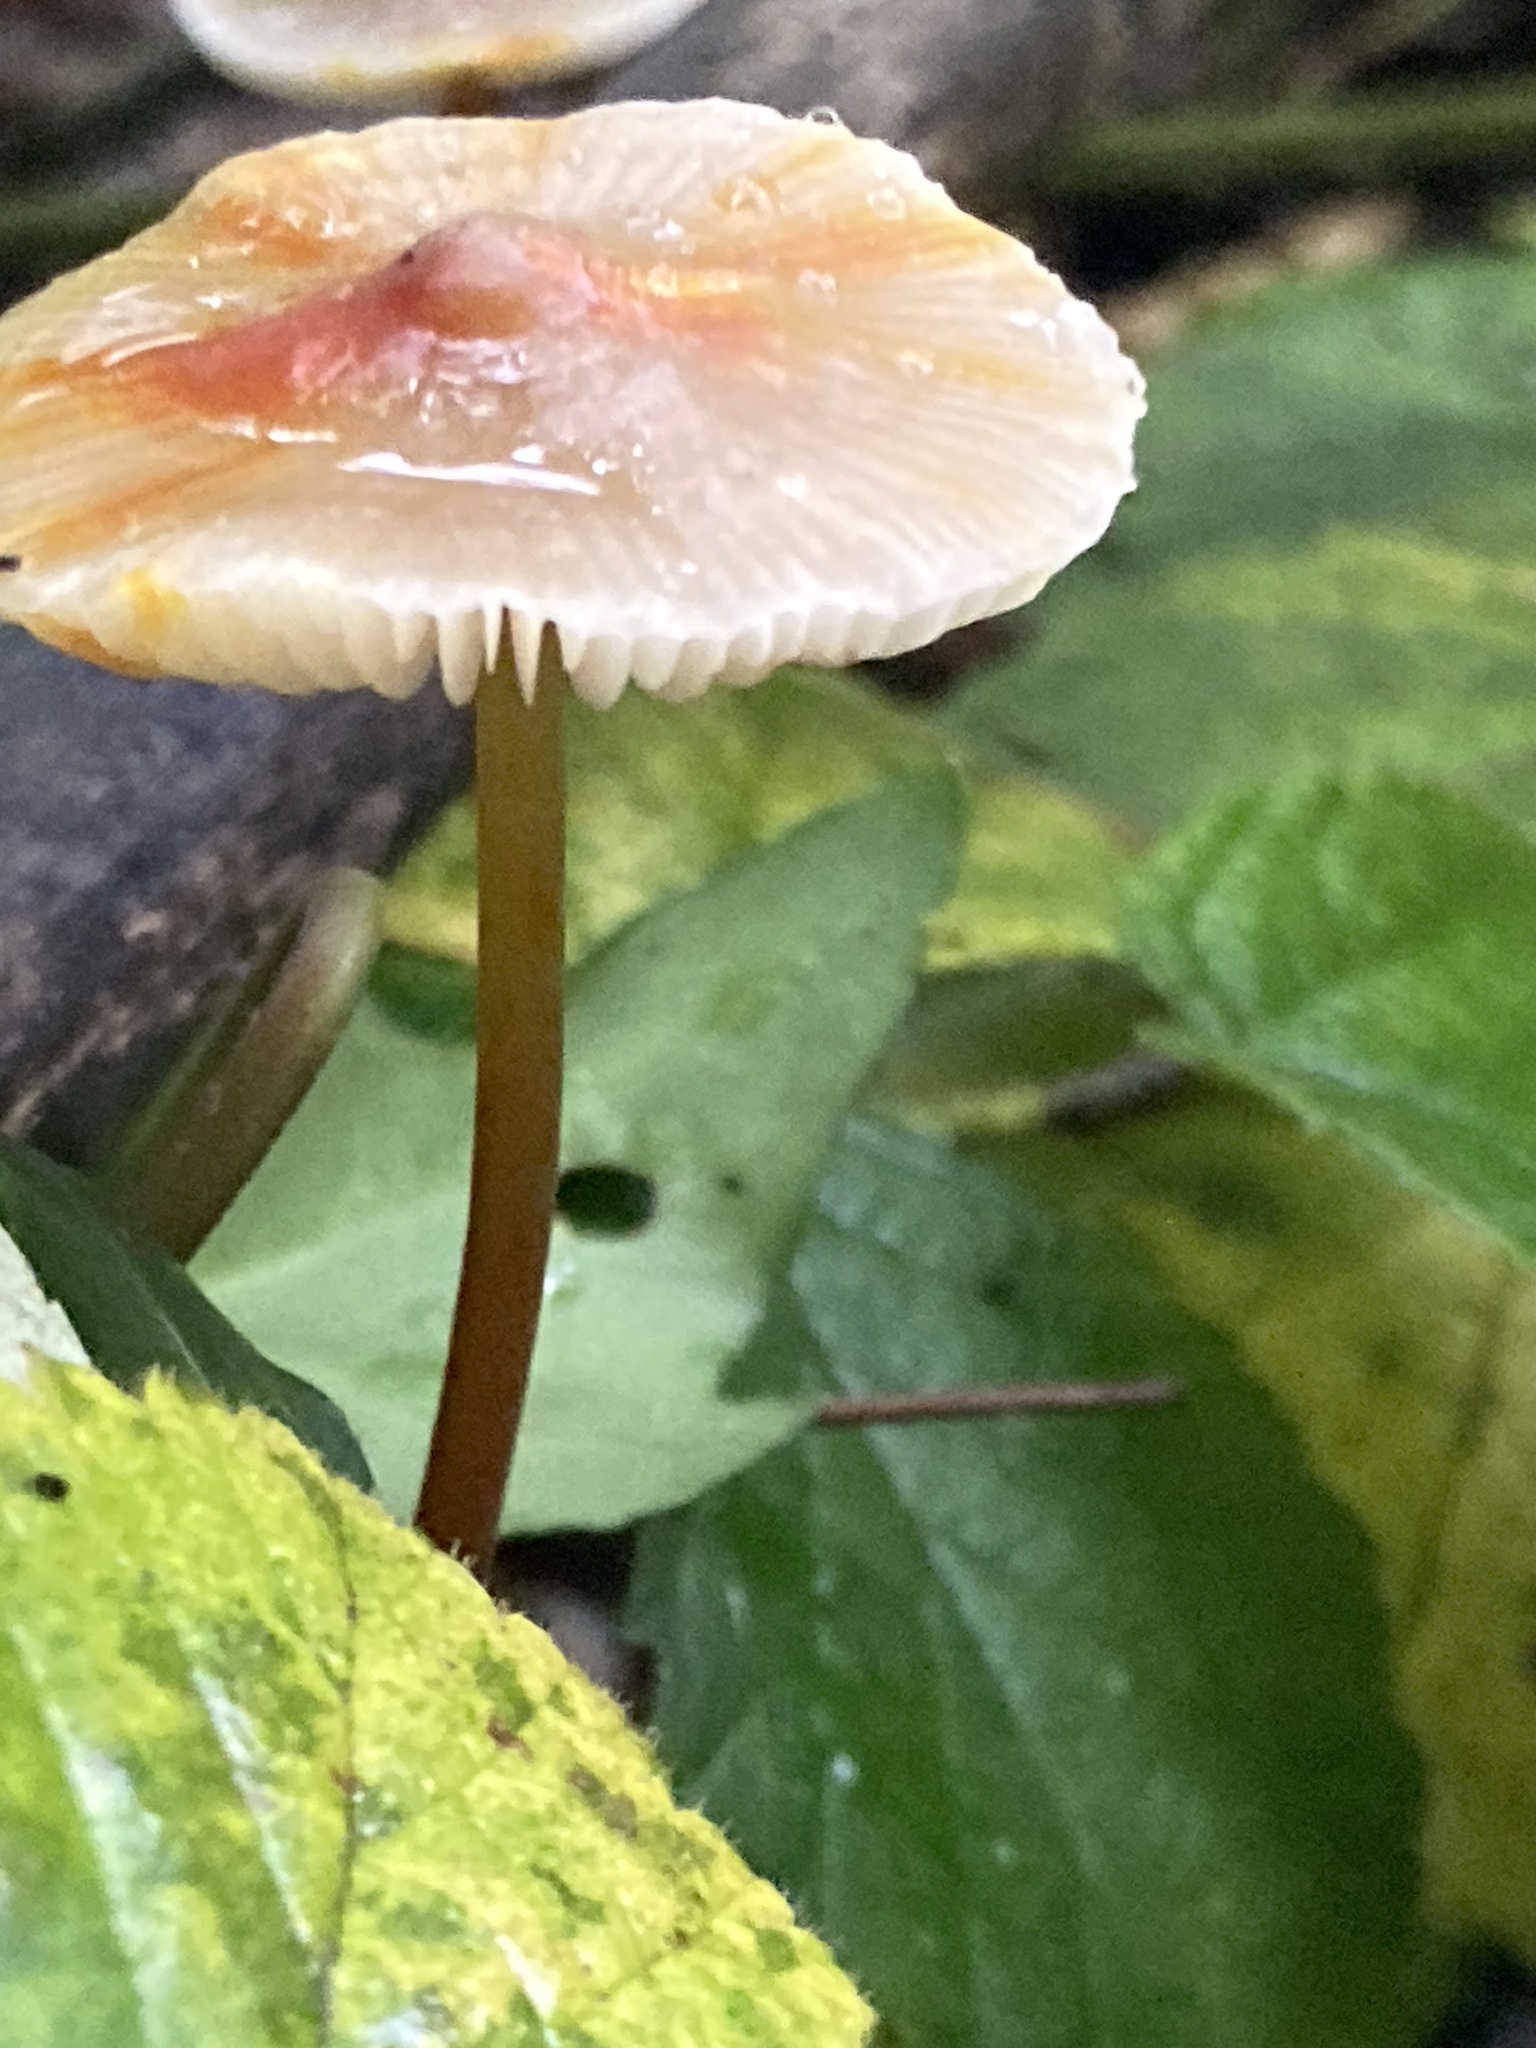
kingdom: Fungi
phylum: Basidiomycota
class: Agaricomycetes
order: Agaricales
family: Mycenaceae
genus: Mycena
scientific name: Mycena crocata
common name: Saffrondrop bonnet
